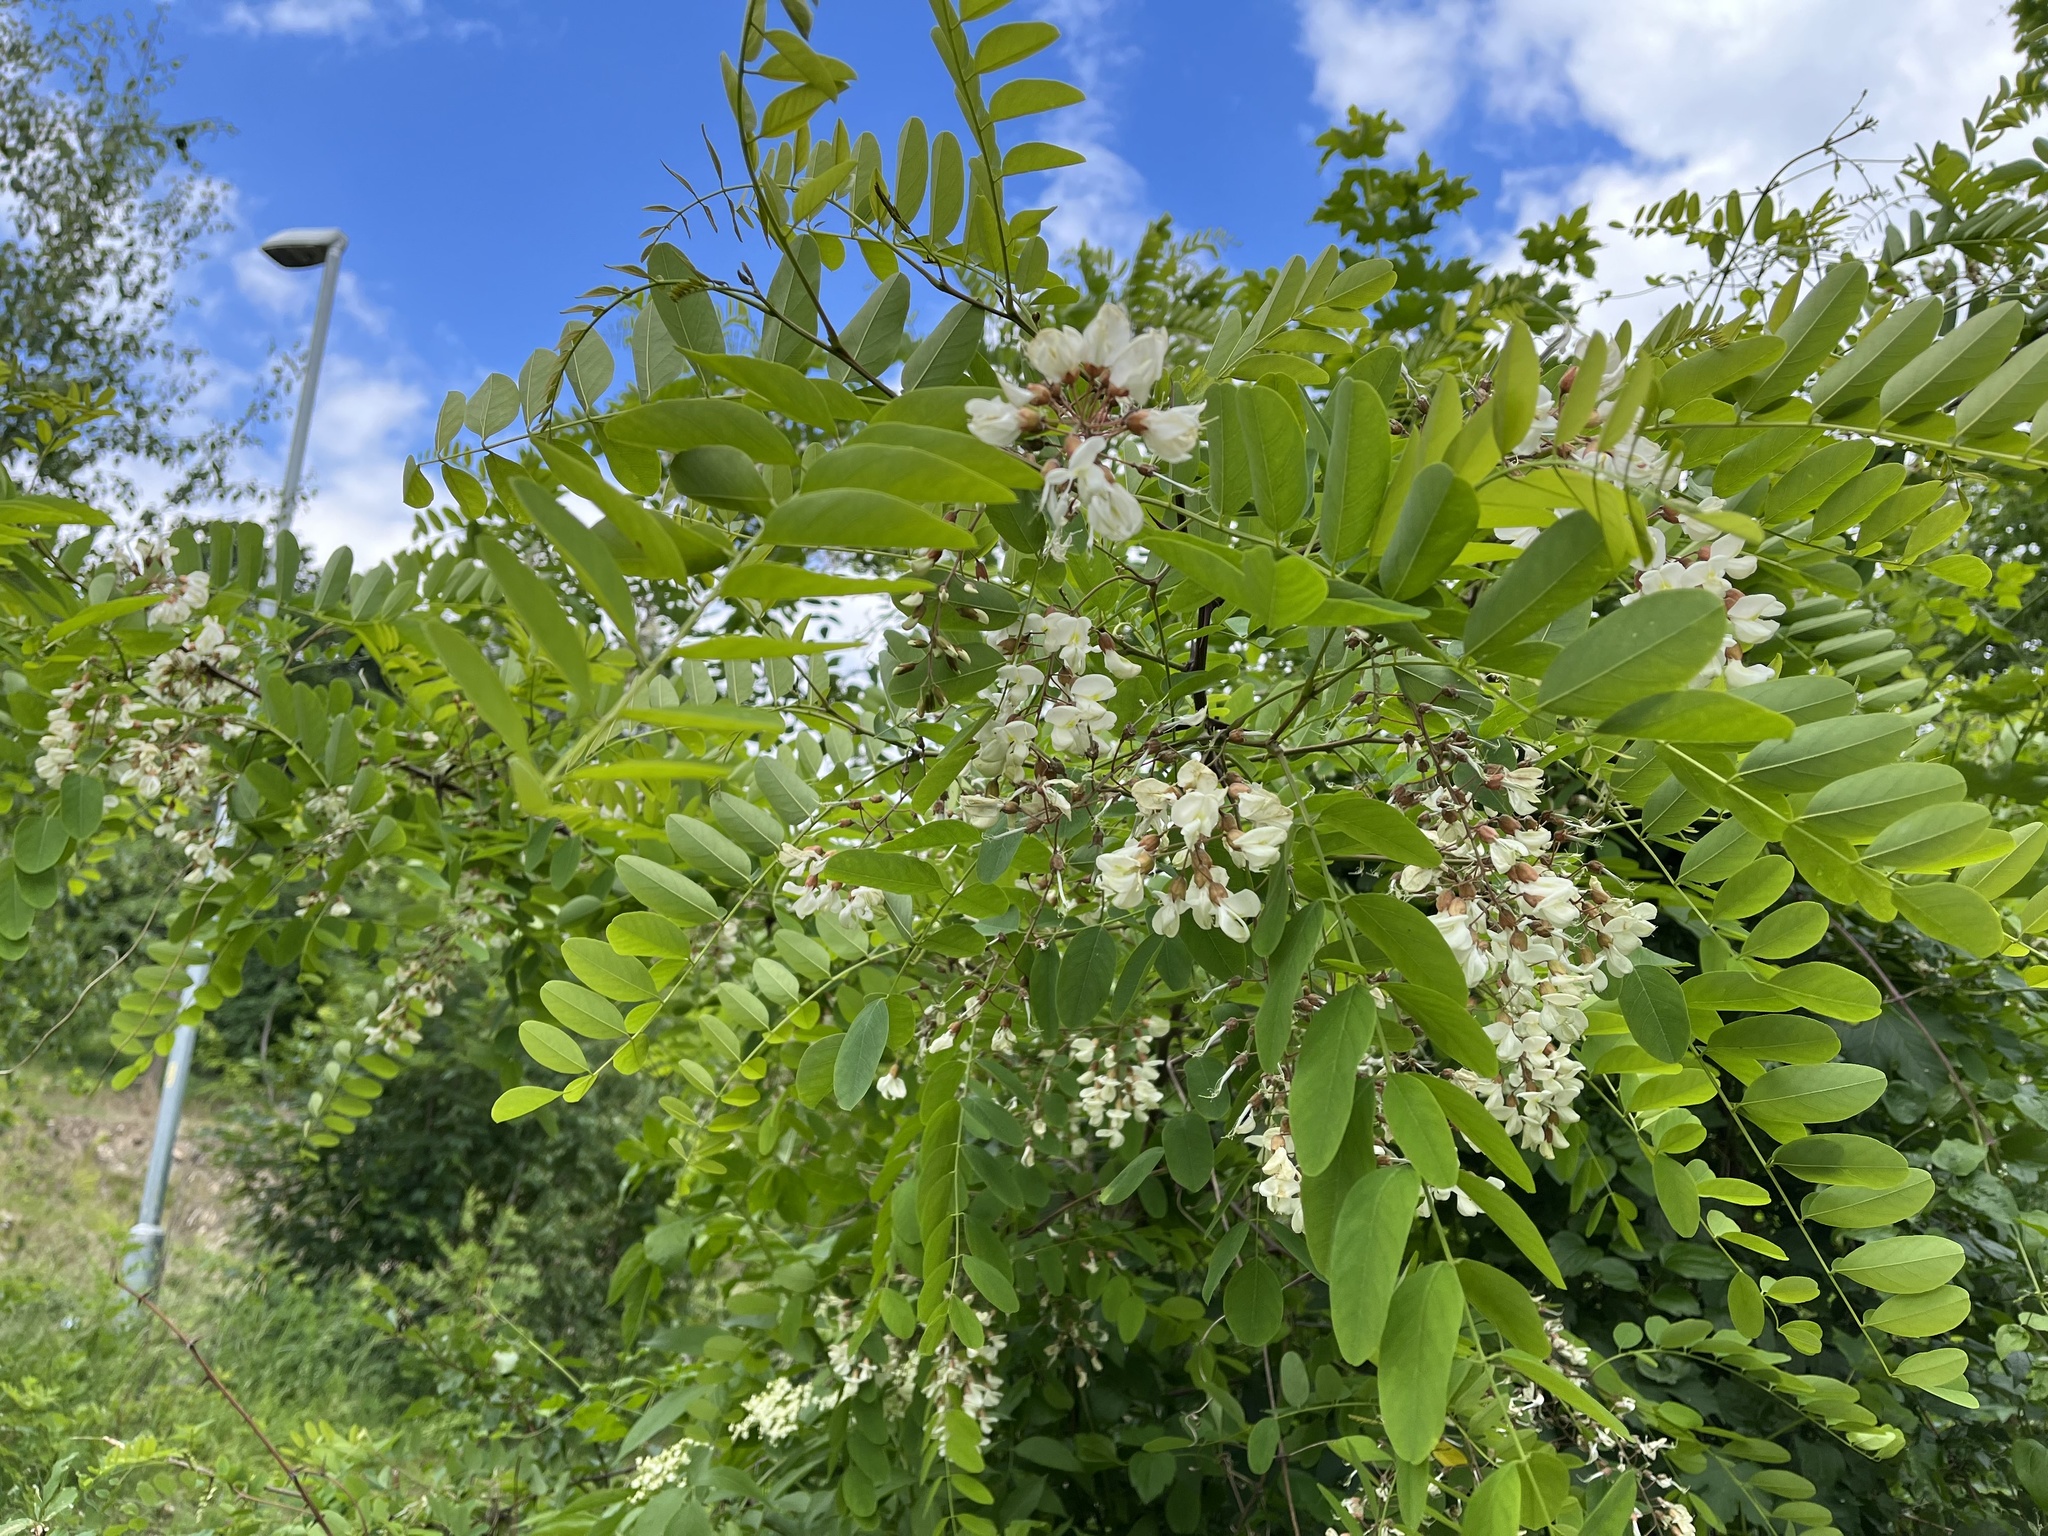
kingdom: Plantae
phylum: Tracheophyta
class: Magnoliopsida
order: Fabales
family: Fabaceae
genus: Robinia
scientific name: Robinia pseudoacacia
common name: Black locust
